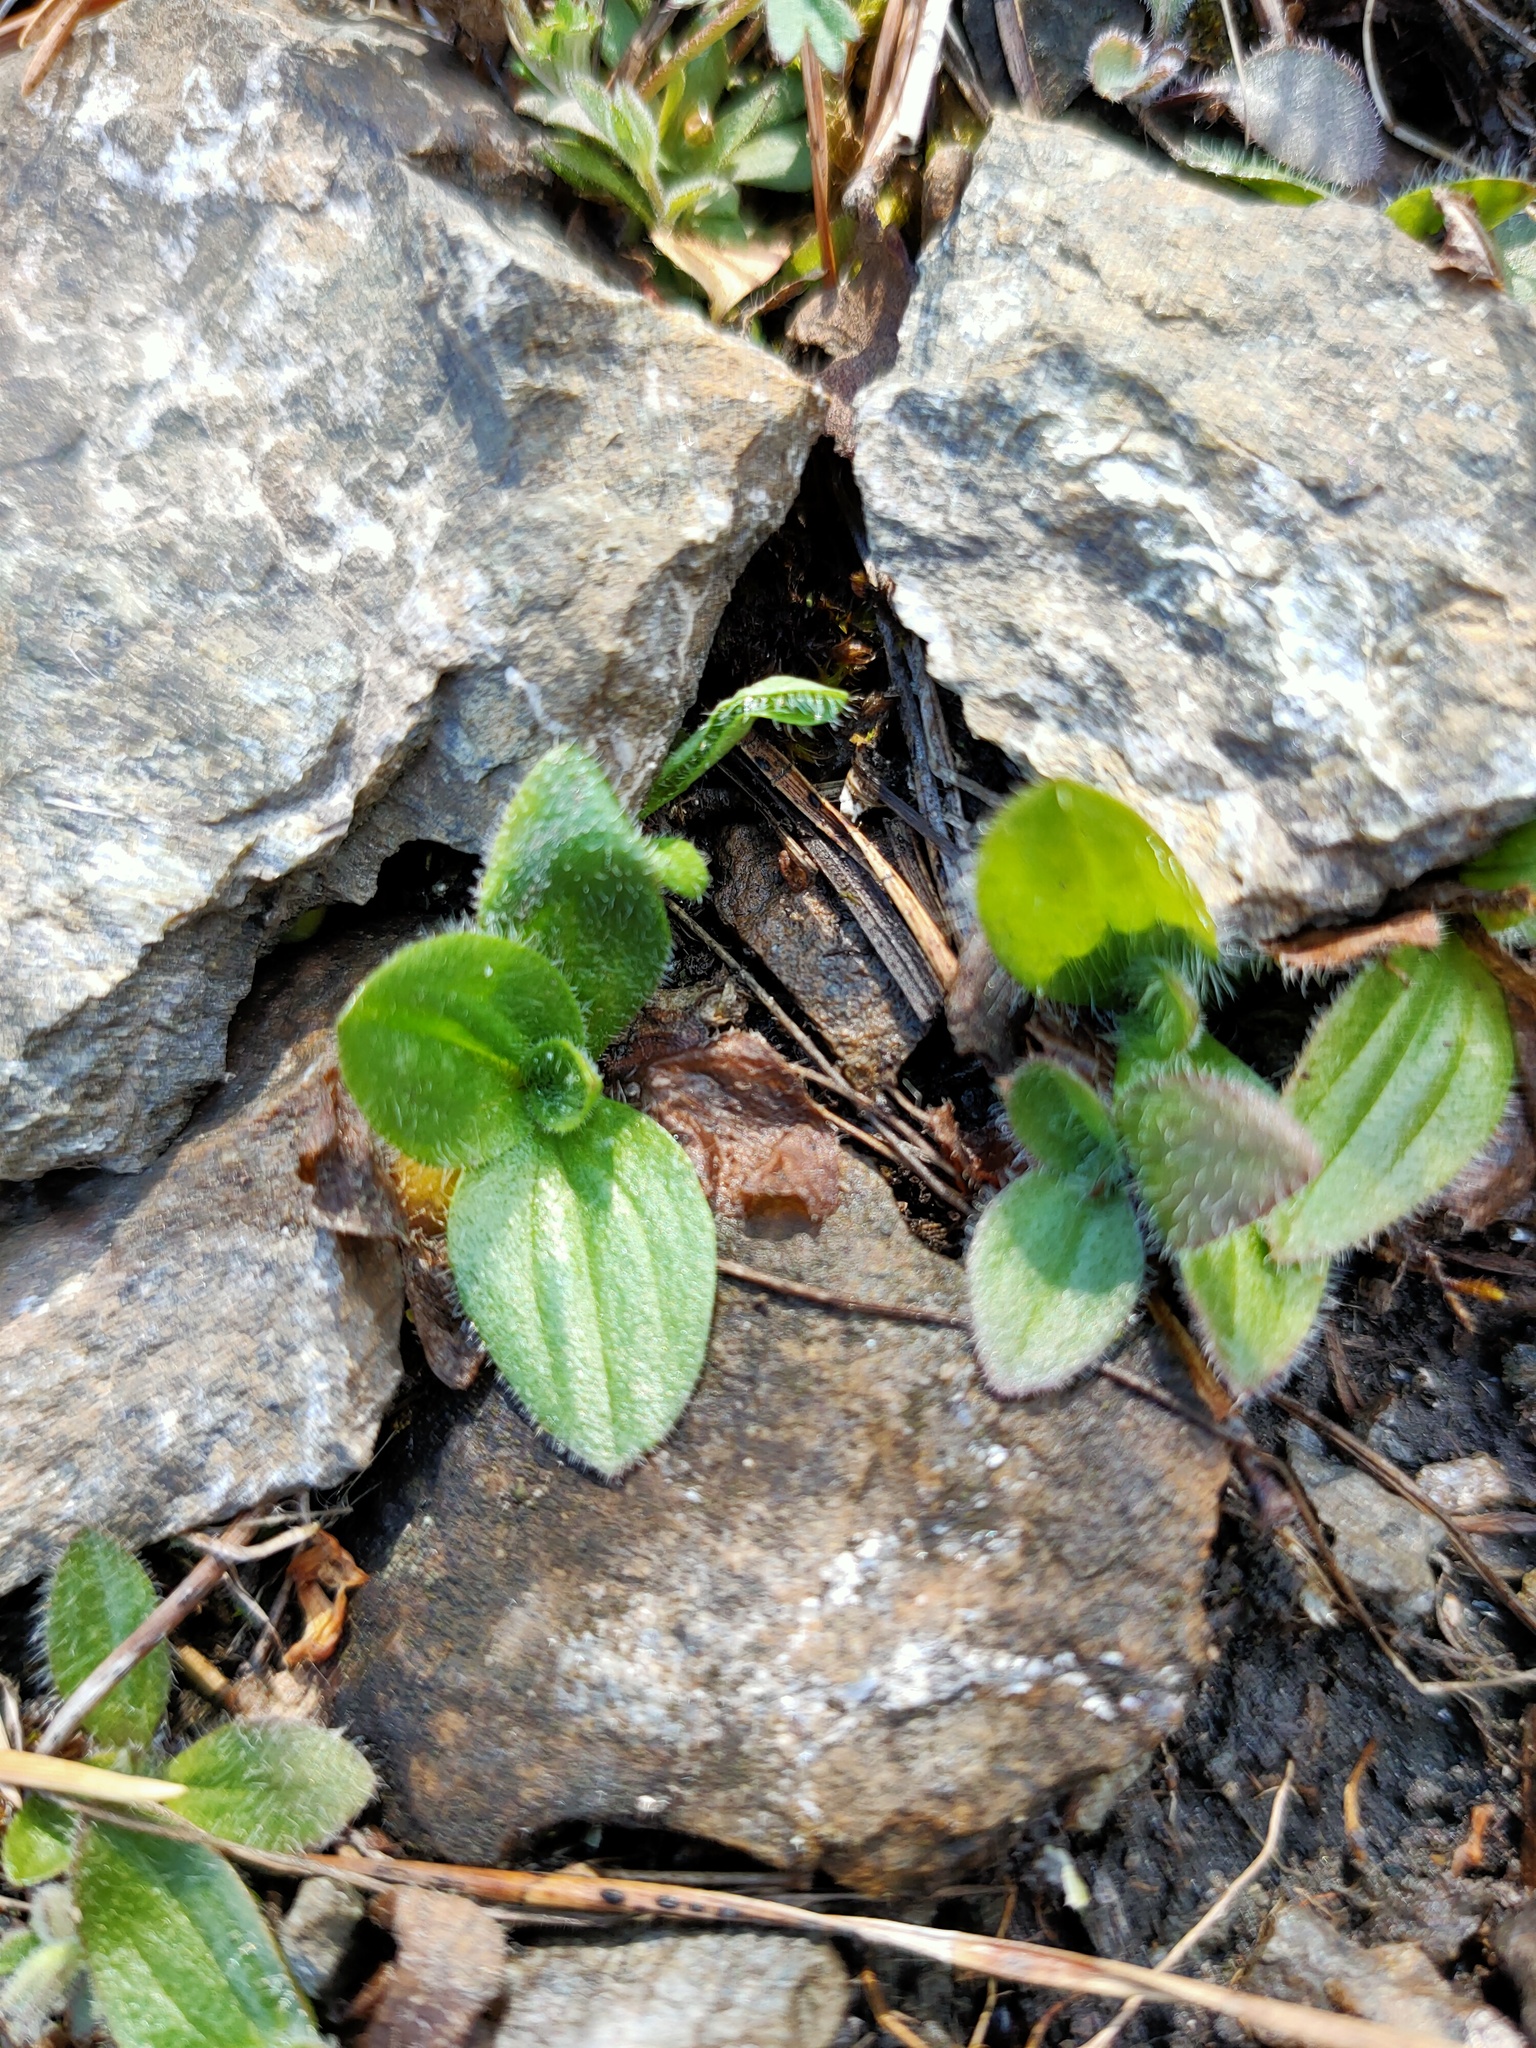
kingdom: Plantae
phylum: Tracheophyta
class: Magnoliopsida
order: Lamiales
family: Plantaginaceae
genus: Plantago
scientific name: Plantago media
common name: Hoary plantain
